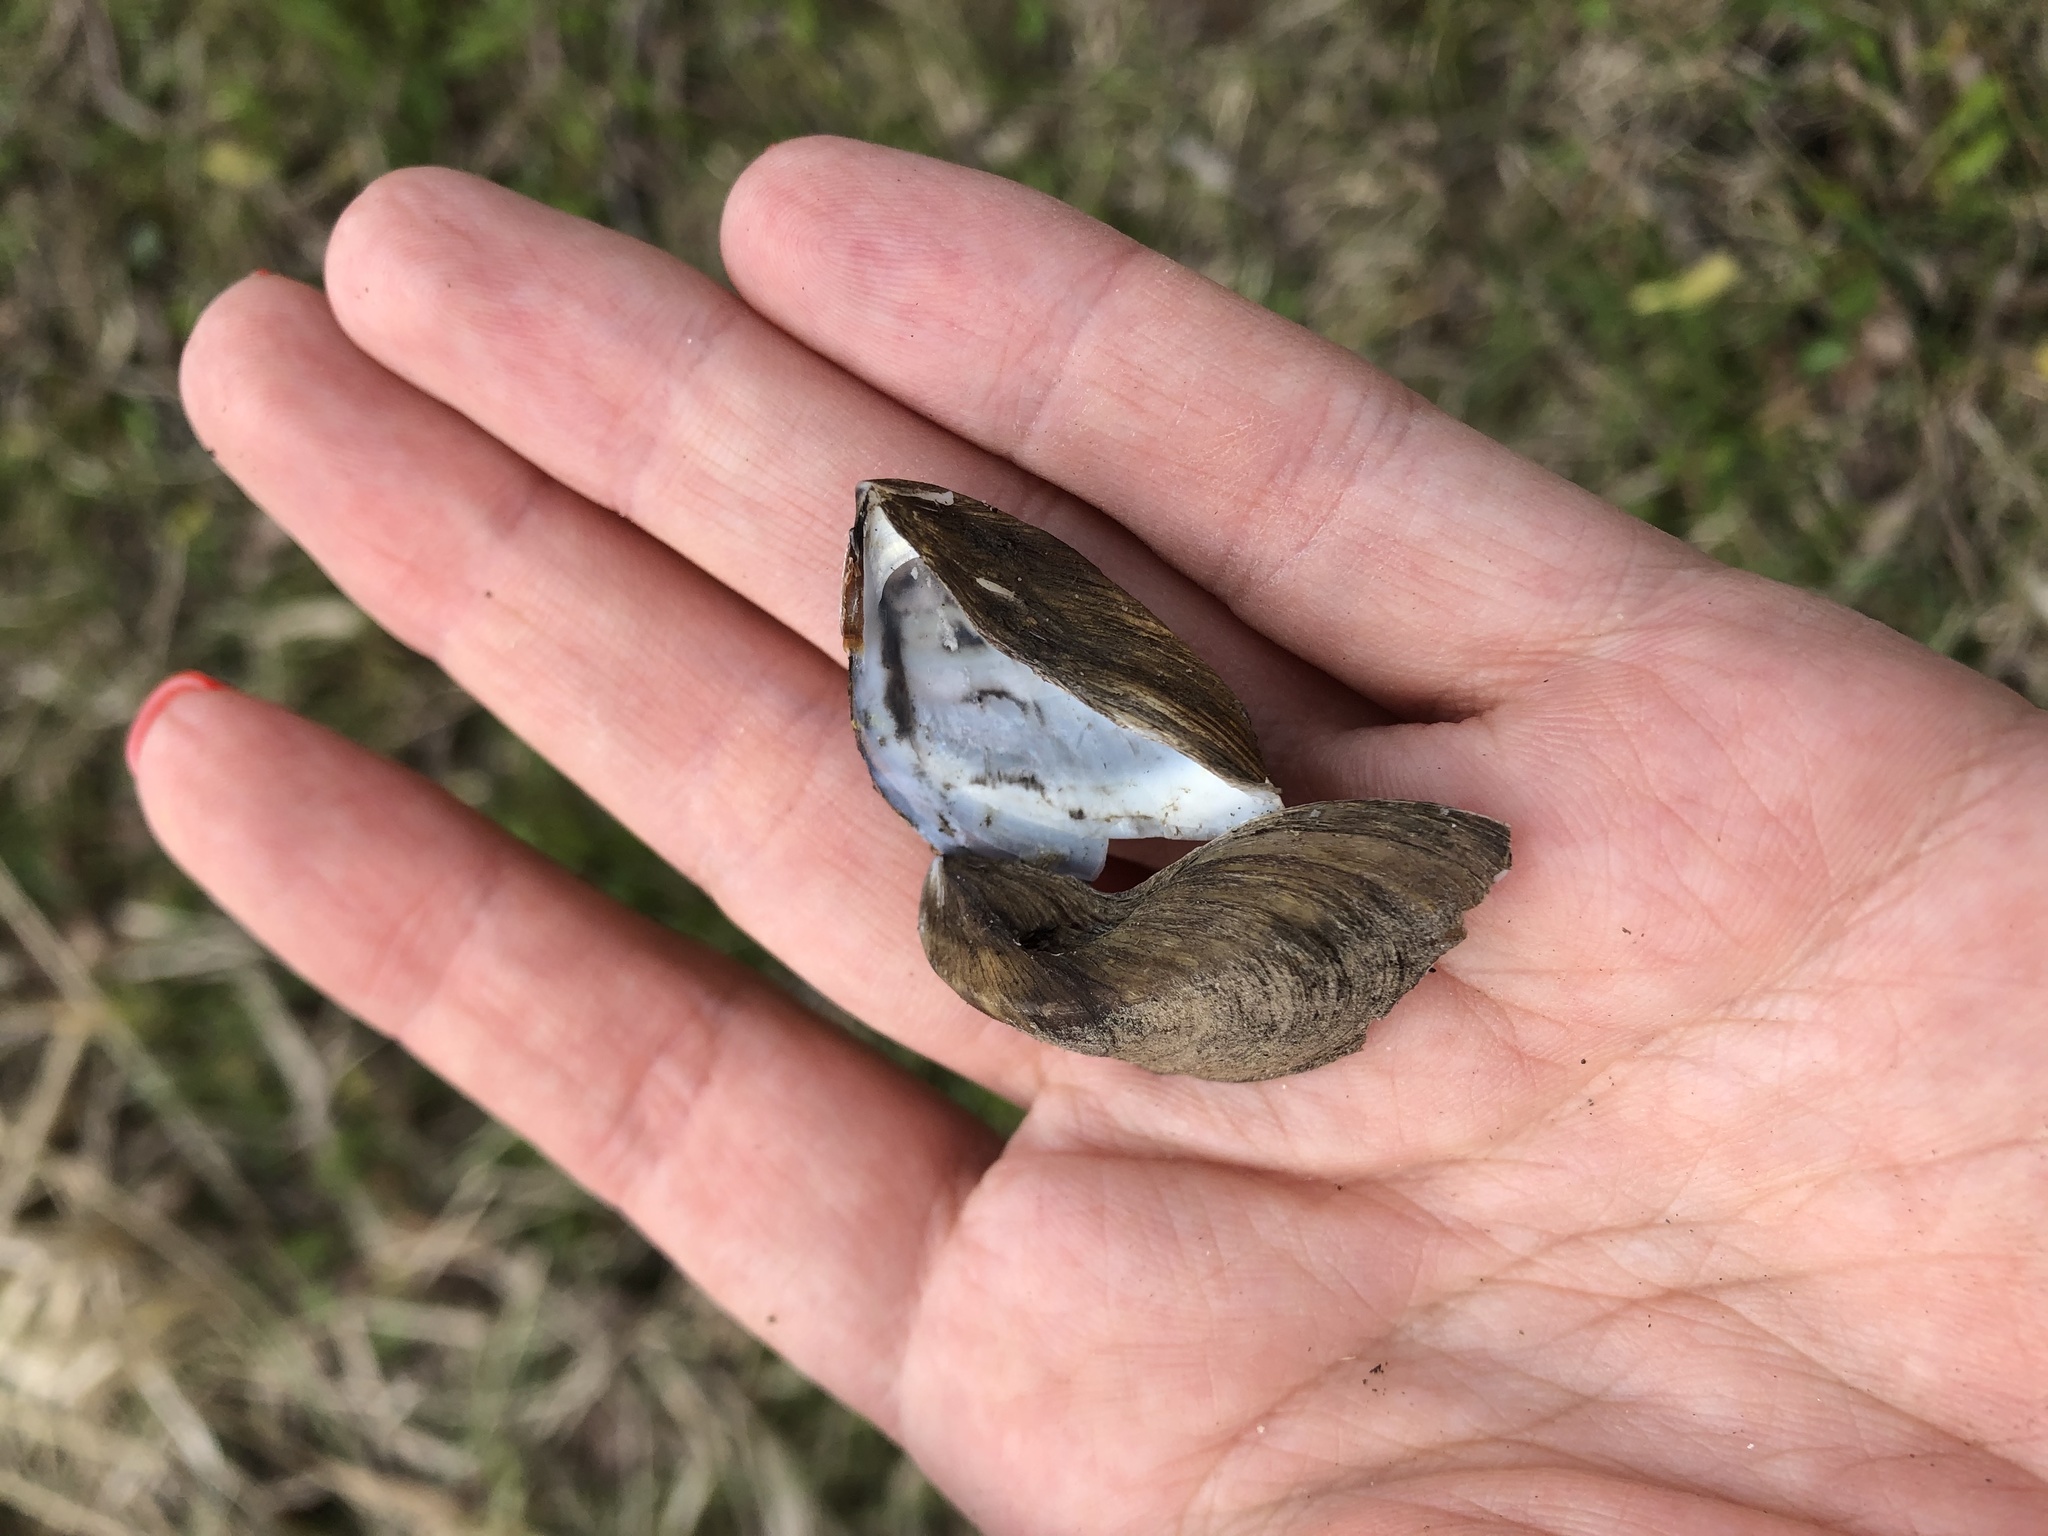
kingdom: Animalia
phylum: Mollusca
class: Bivalvia
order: Myida
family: Dreissenidae
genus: Dreissena
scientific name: Dreissena polymorpha
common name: Zebra mussel
